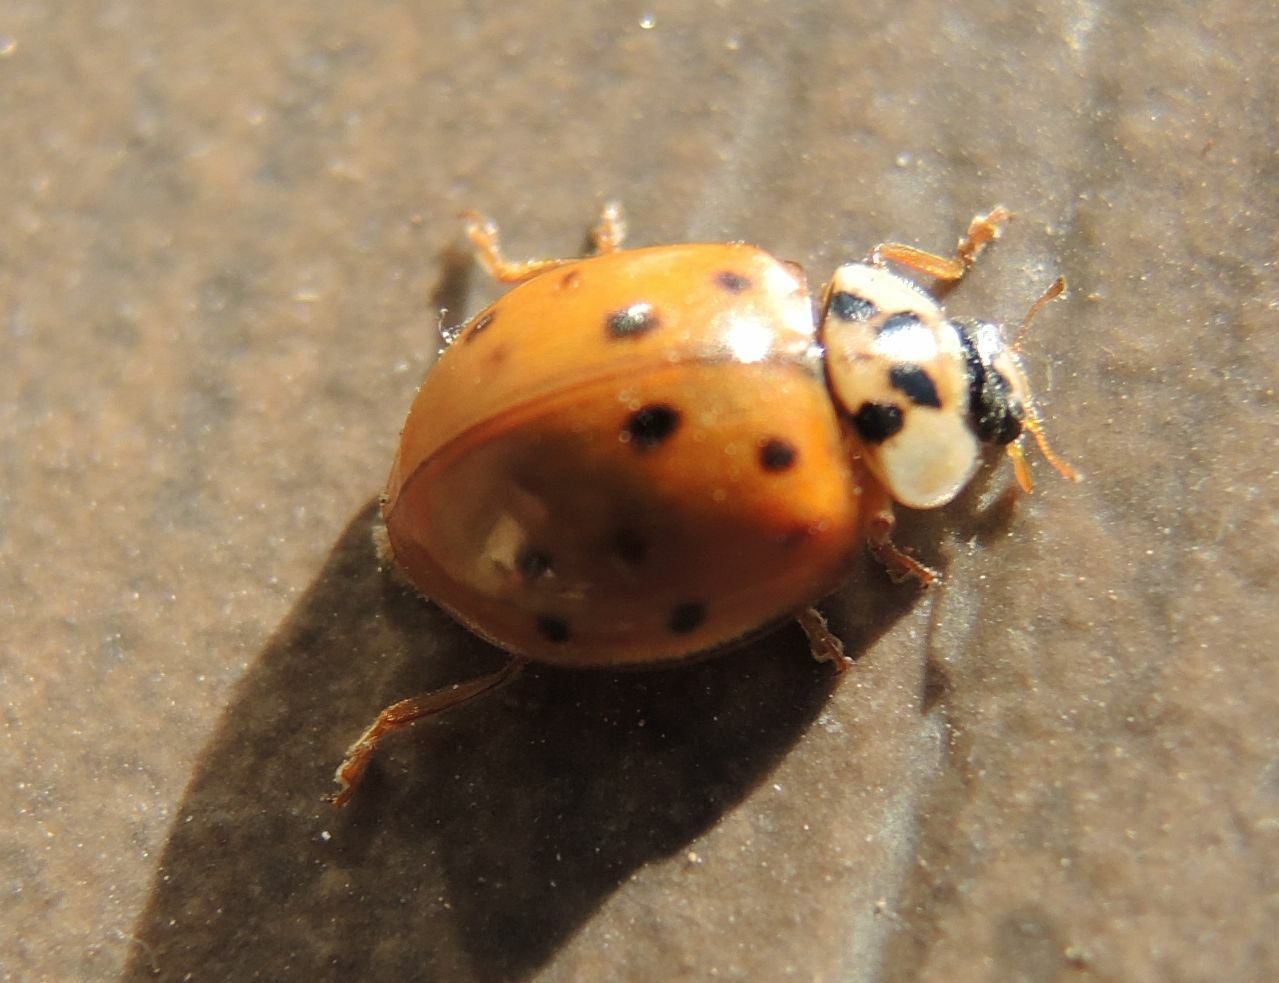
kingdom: Animalia
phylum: Arthropoda
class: Insecta
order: Coleoptera
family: Coccinellidae
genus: Harmonia
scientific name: Harmonia axyridis
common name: Harlequin ladybird
